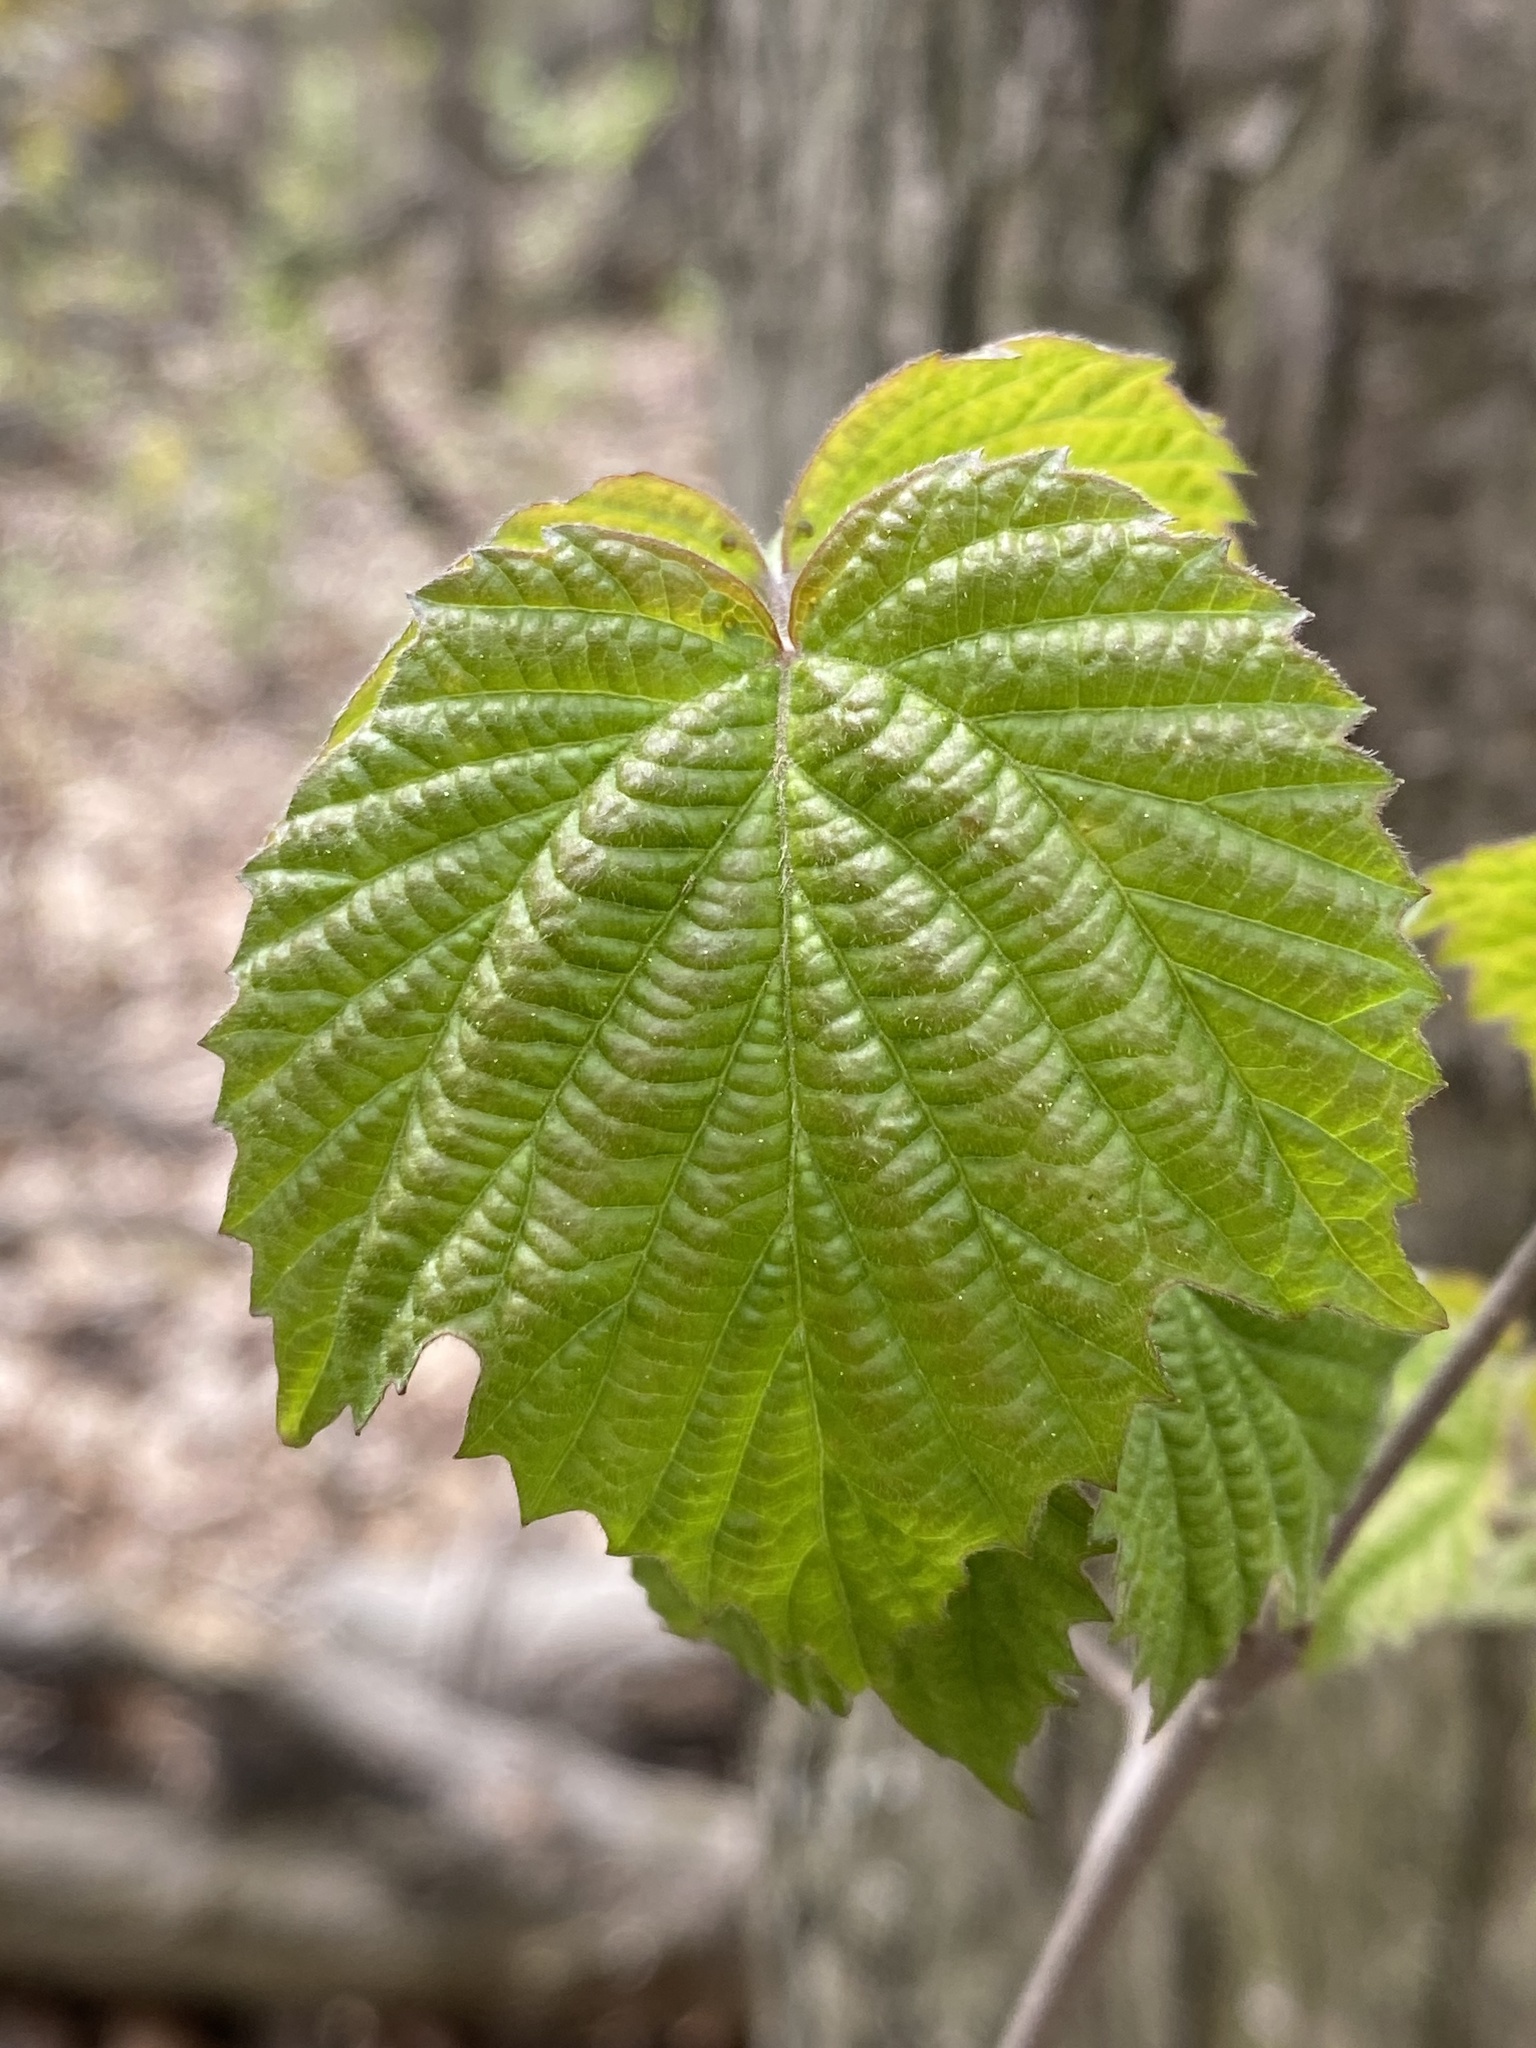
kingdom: Plantae
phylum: Tracheophyta
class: Magnoliopsida
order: Dipsacales
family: Viburnaceae
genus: Viburnum
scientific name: Viburnum acerifolium
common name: Dockmackie
